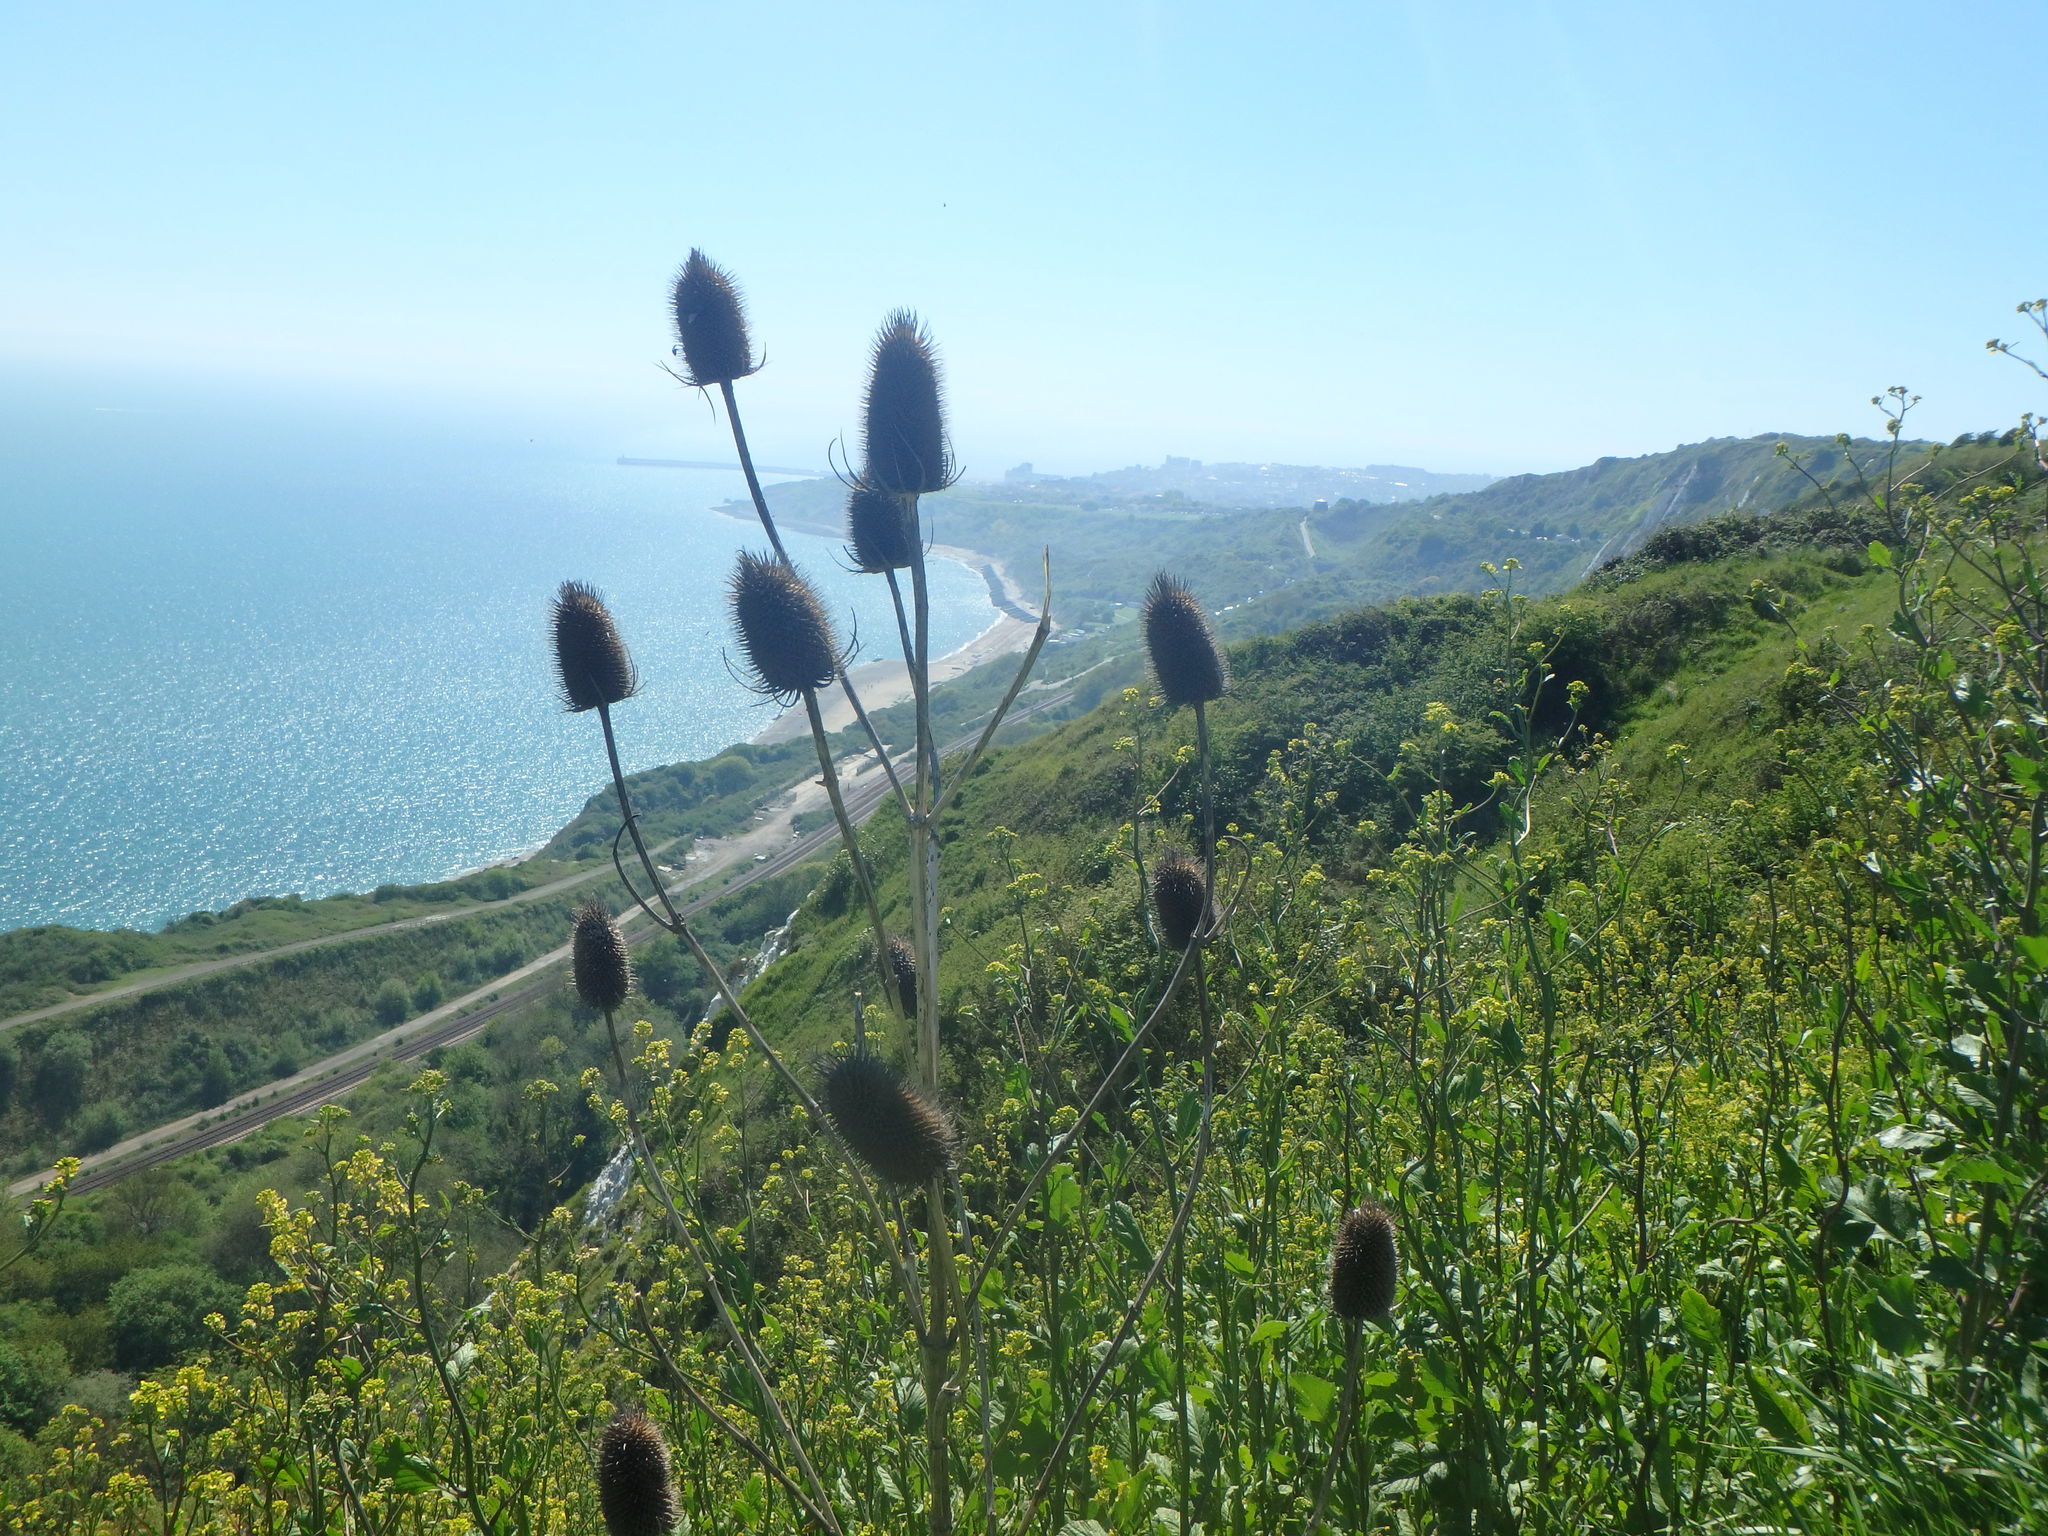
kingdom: Plantae
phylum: Tracheophyta
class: Magnoliopsida
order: Dipsacales
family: Caprifoliaceae
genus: Dipsacus
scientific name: Dipsacus fullonum
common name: Teasel
